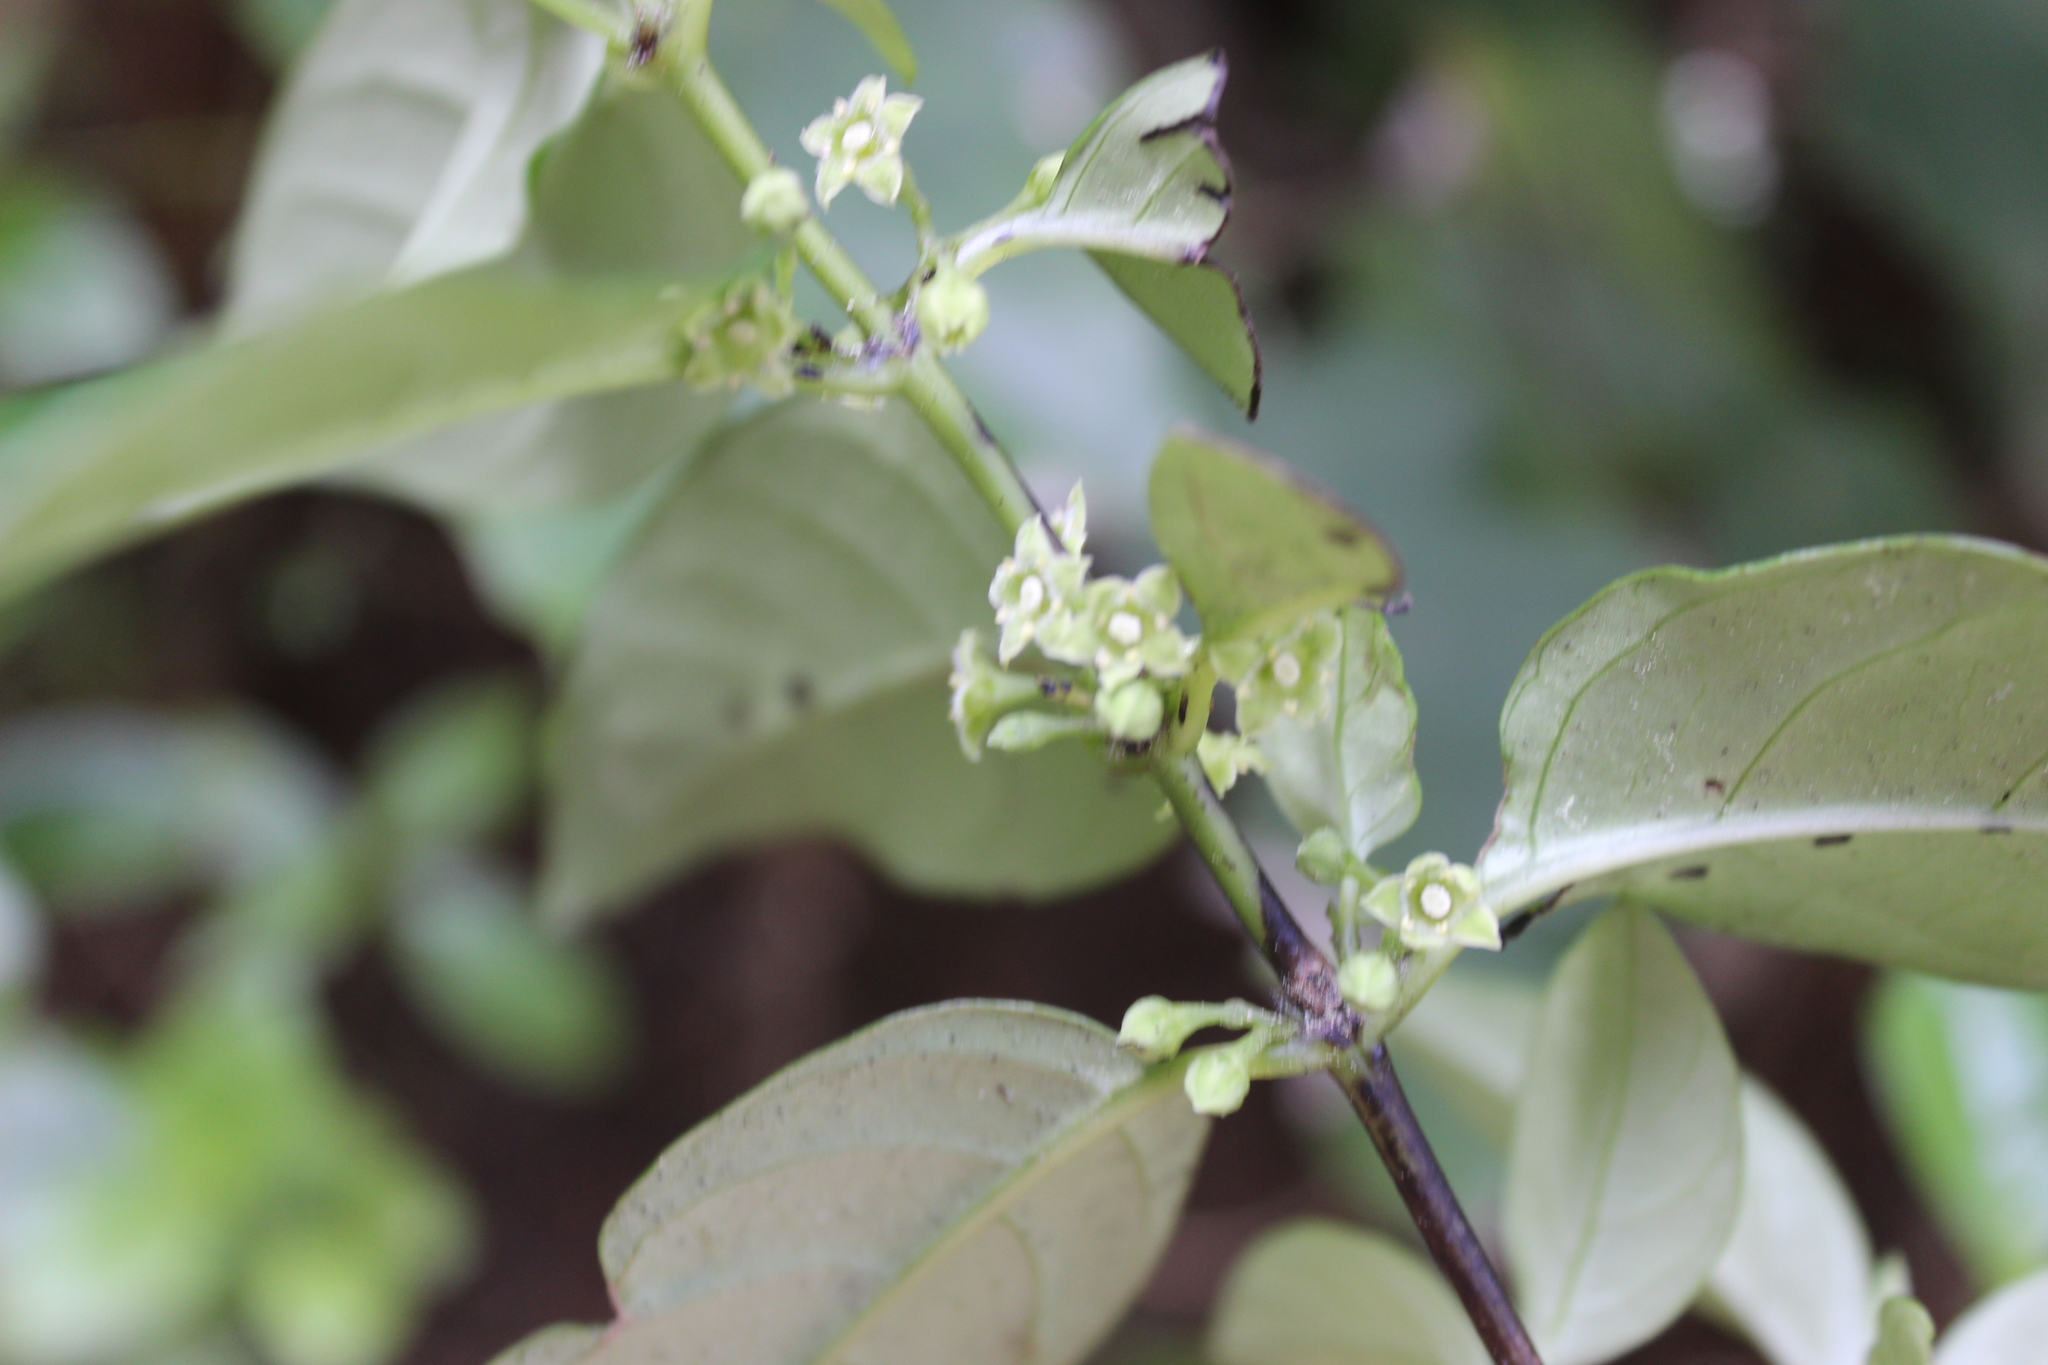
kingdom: Plantae
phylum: Tracheophyta
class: Magnoliopsida
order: Gentianales
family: Loganiaceae
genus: Geniostoma
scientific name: Geniostoma ligustrifolium
